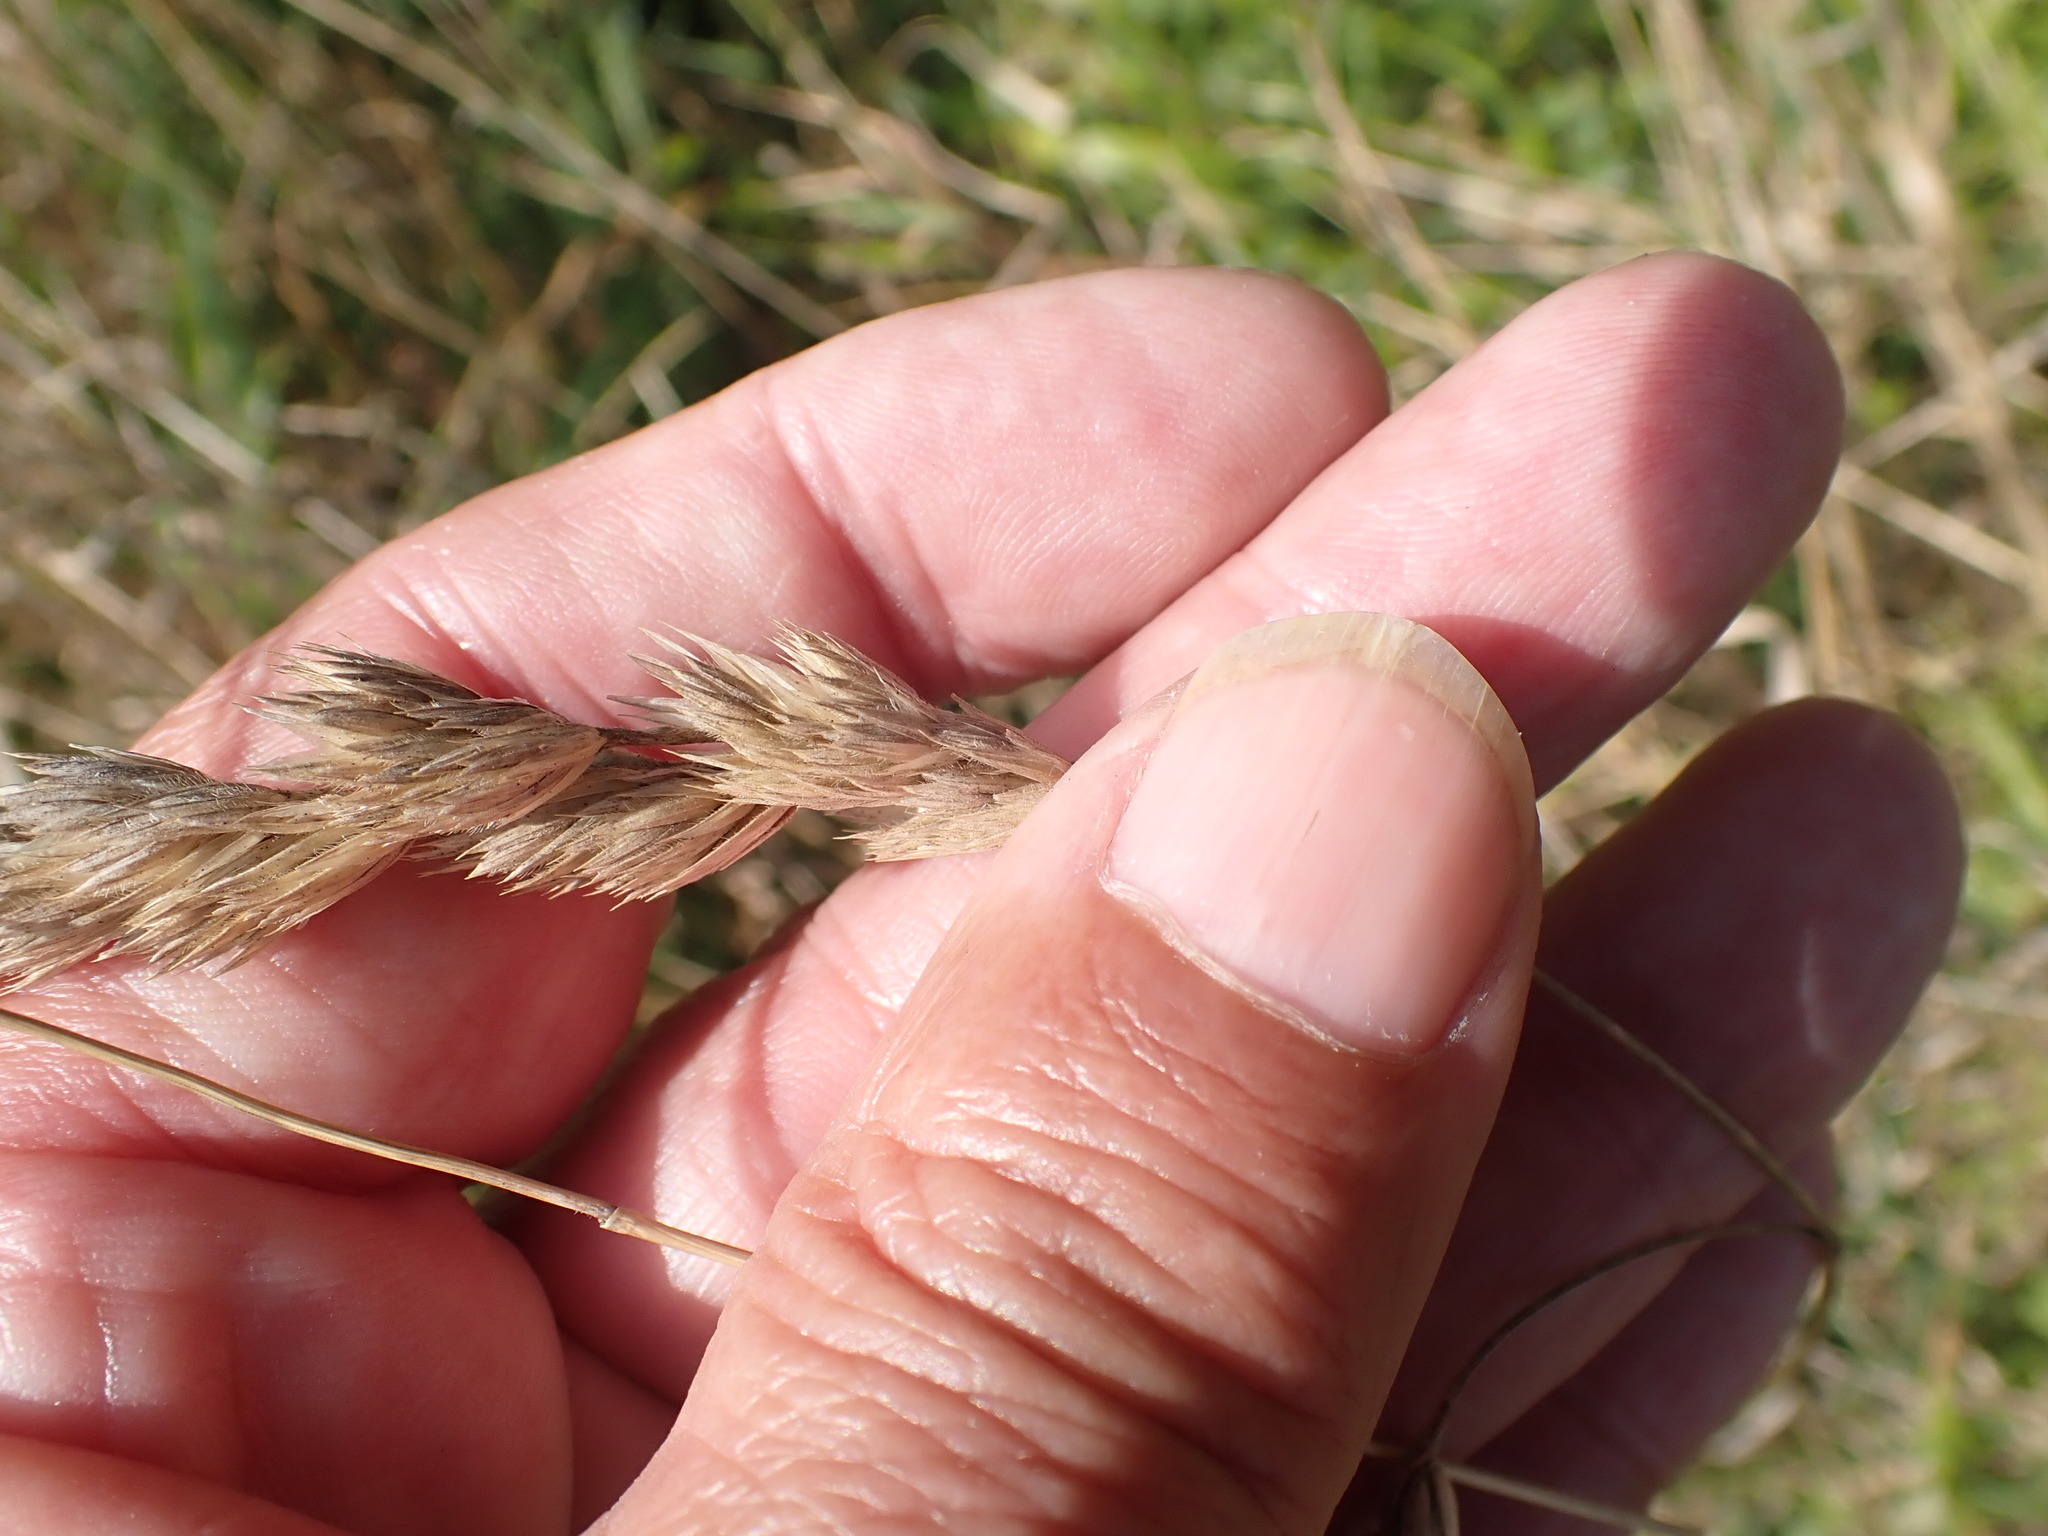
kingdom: Plantae
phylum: Tracheophyta
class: Liliopsida
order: Poales
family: Poaceae
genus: Dactylis
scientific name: Dactylis glomerata
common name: Orchardgrass
